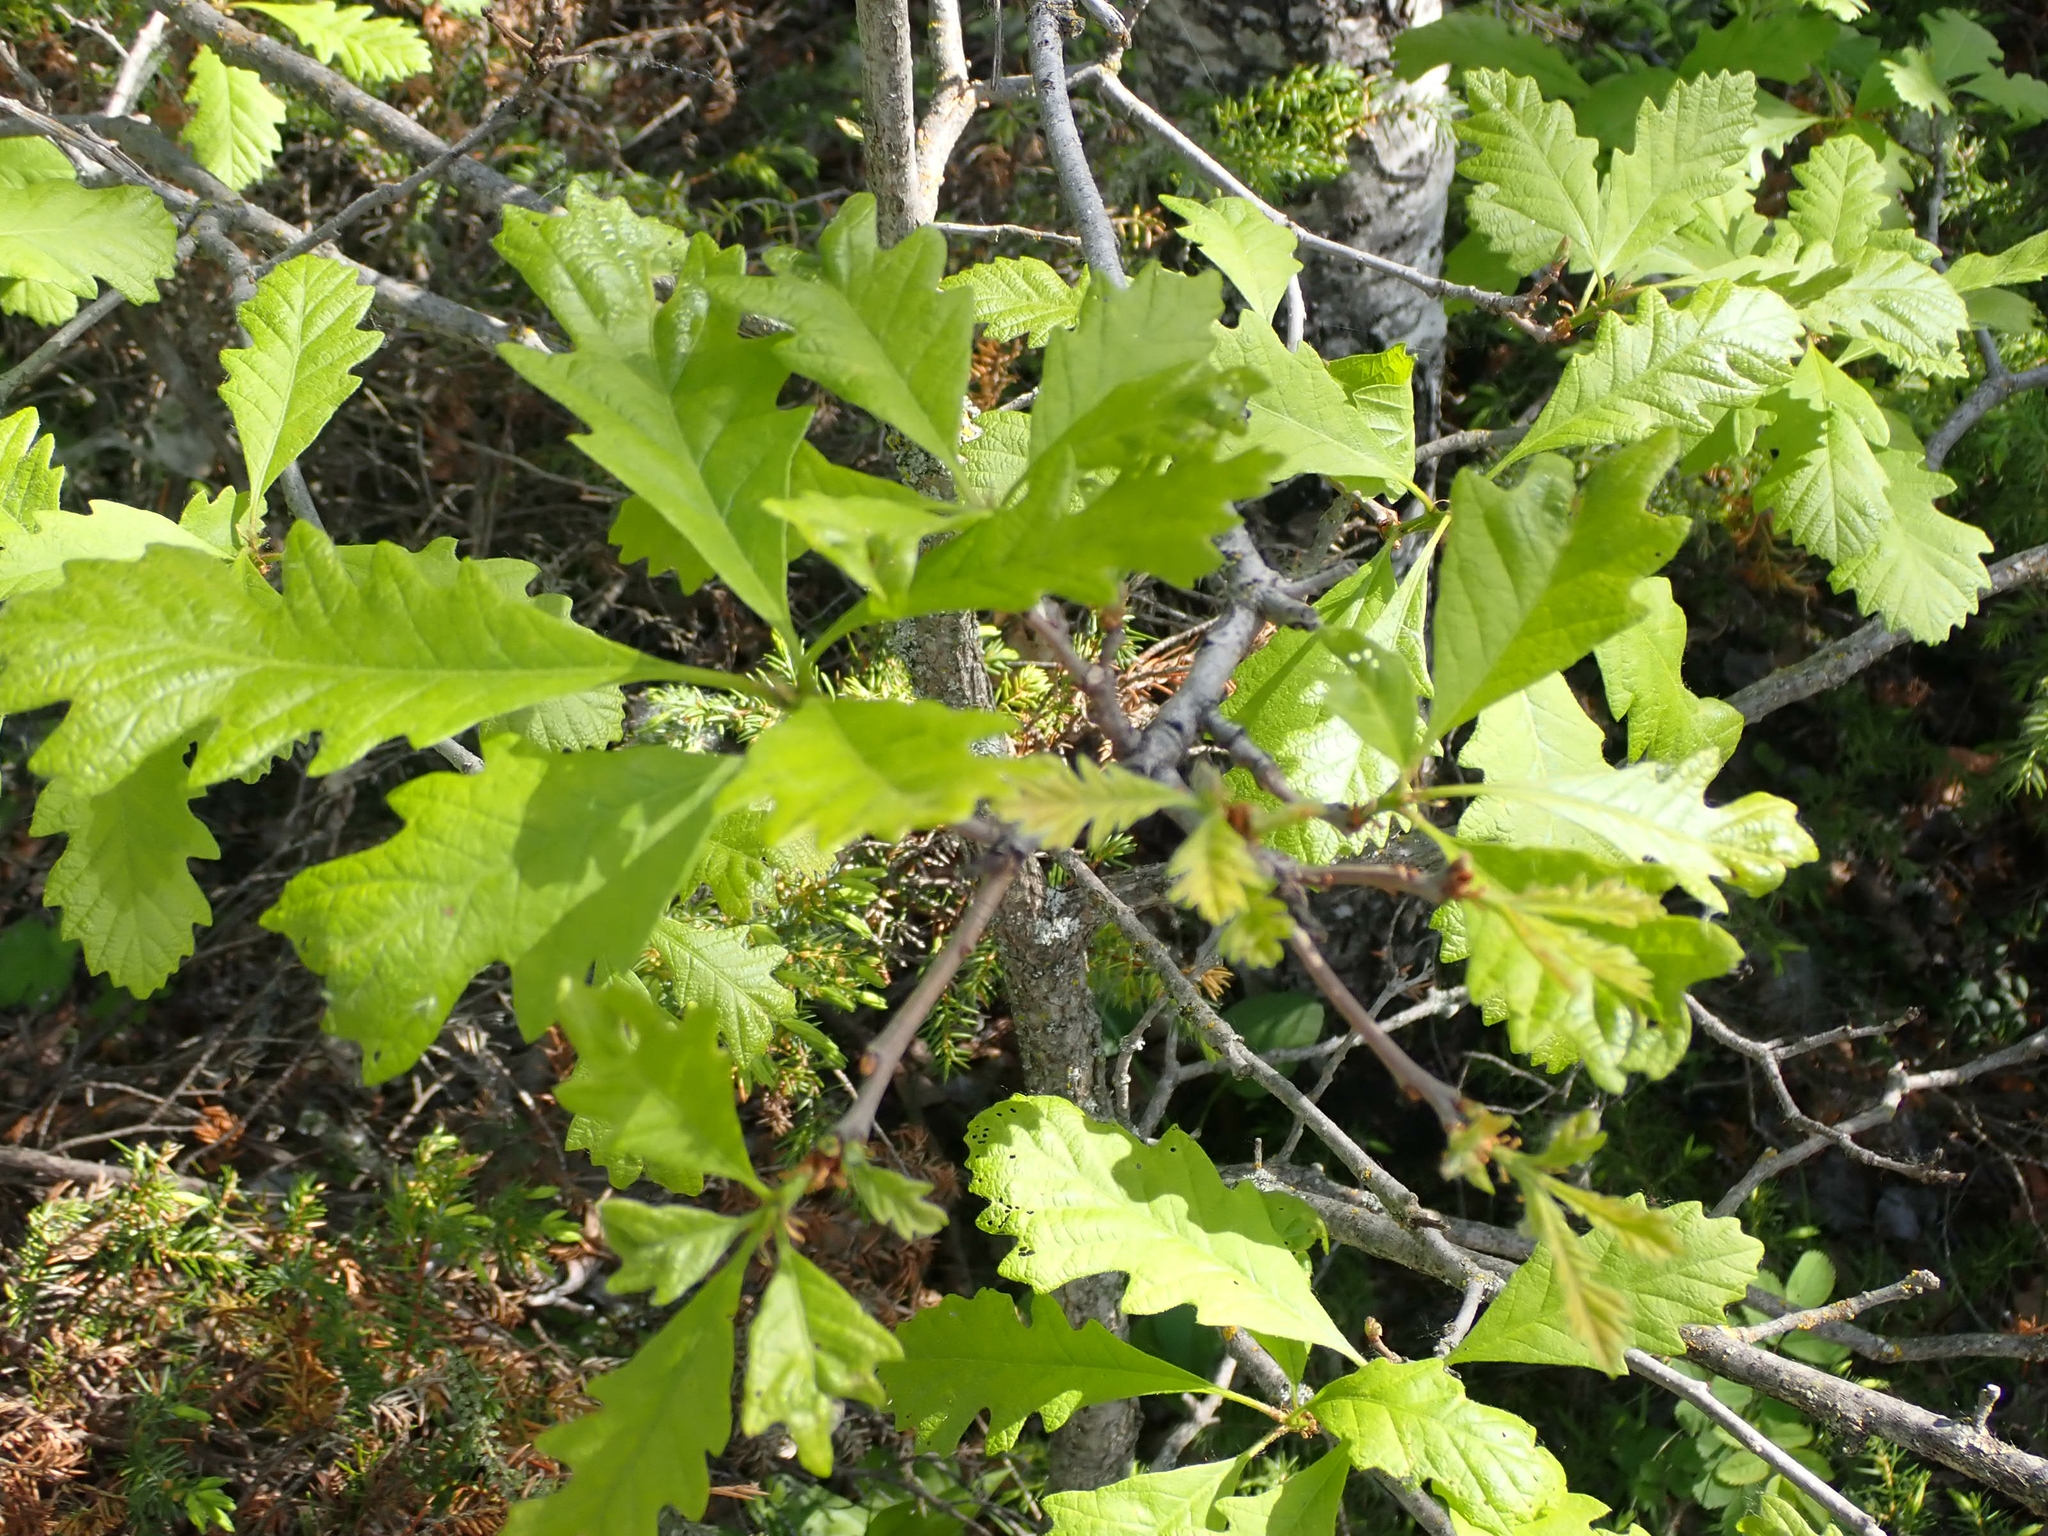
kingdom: Plantae
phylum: Tracheophyta
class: Magnoliopsida
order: Fagales
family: Fagaceae
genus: Quercus
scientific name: Quercus macrocarpa
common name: Bur oak
